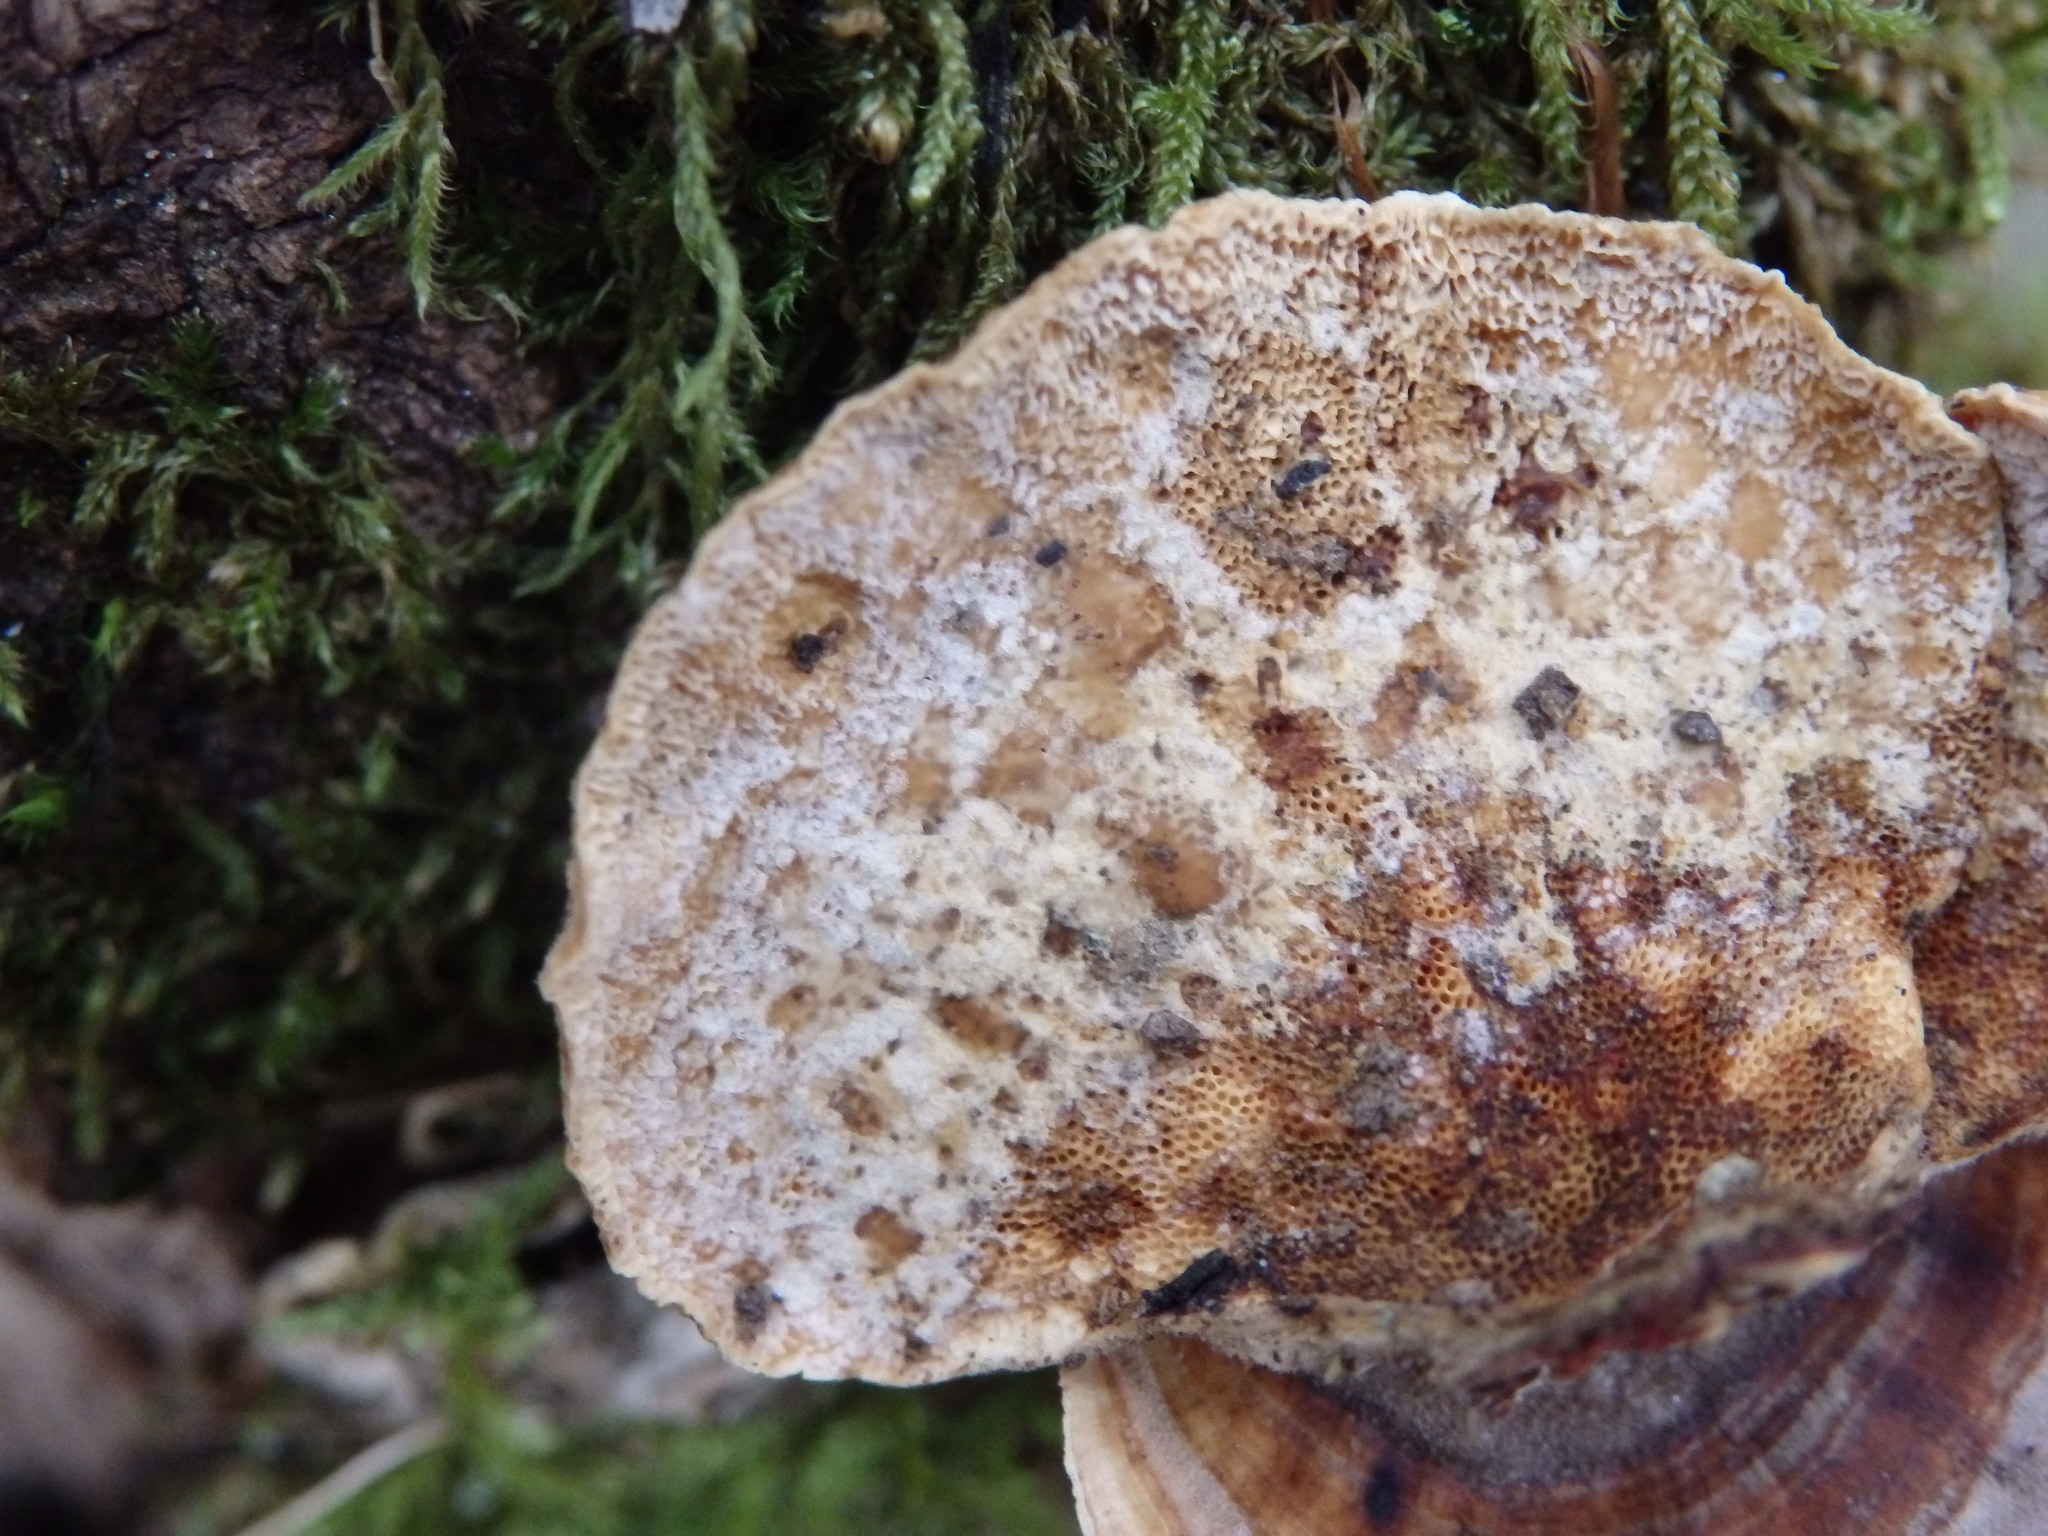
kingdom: Fungi
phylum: Basidiomycota
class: Agaricomycetes
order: Polyporales
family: Polyporaceae
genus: Trametes
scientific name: Trametes versicolor
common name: Turkeytail
